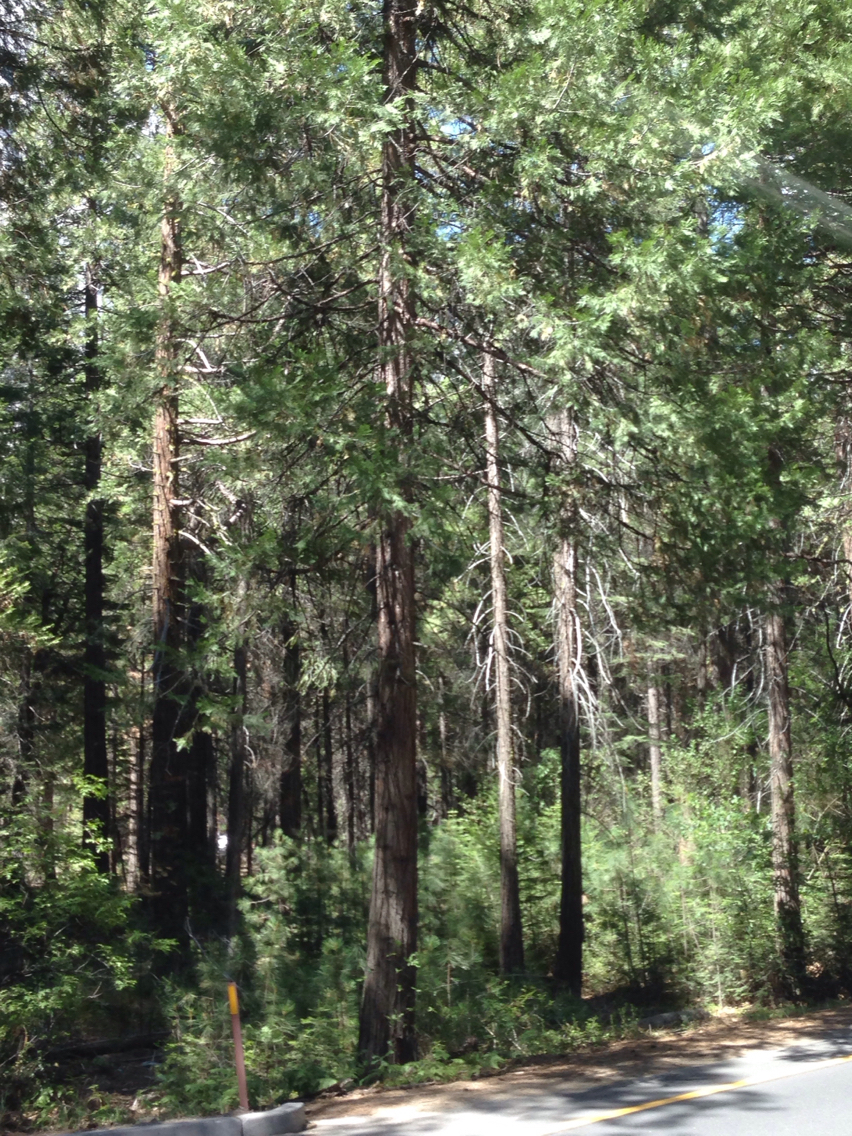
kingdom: Plantae
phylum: Tracheophyta
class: Pinopsida
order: Pinales
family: Cupressaceae
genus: Calocedrus
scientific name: Calocedrus decurrens
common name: Californian incense-cedar
